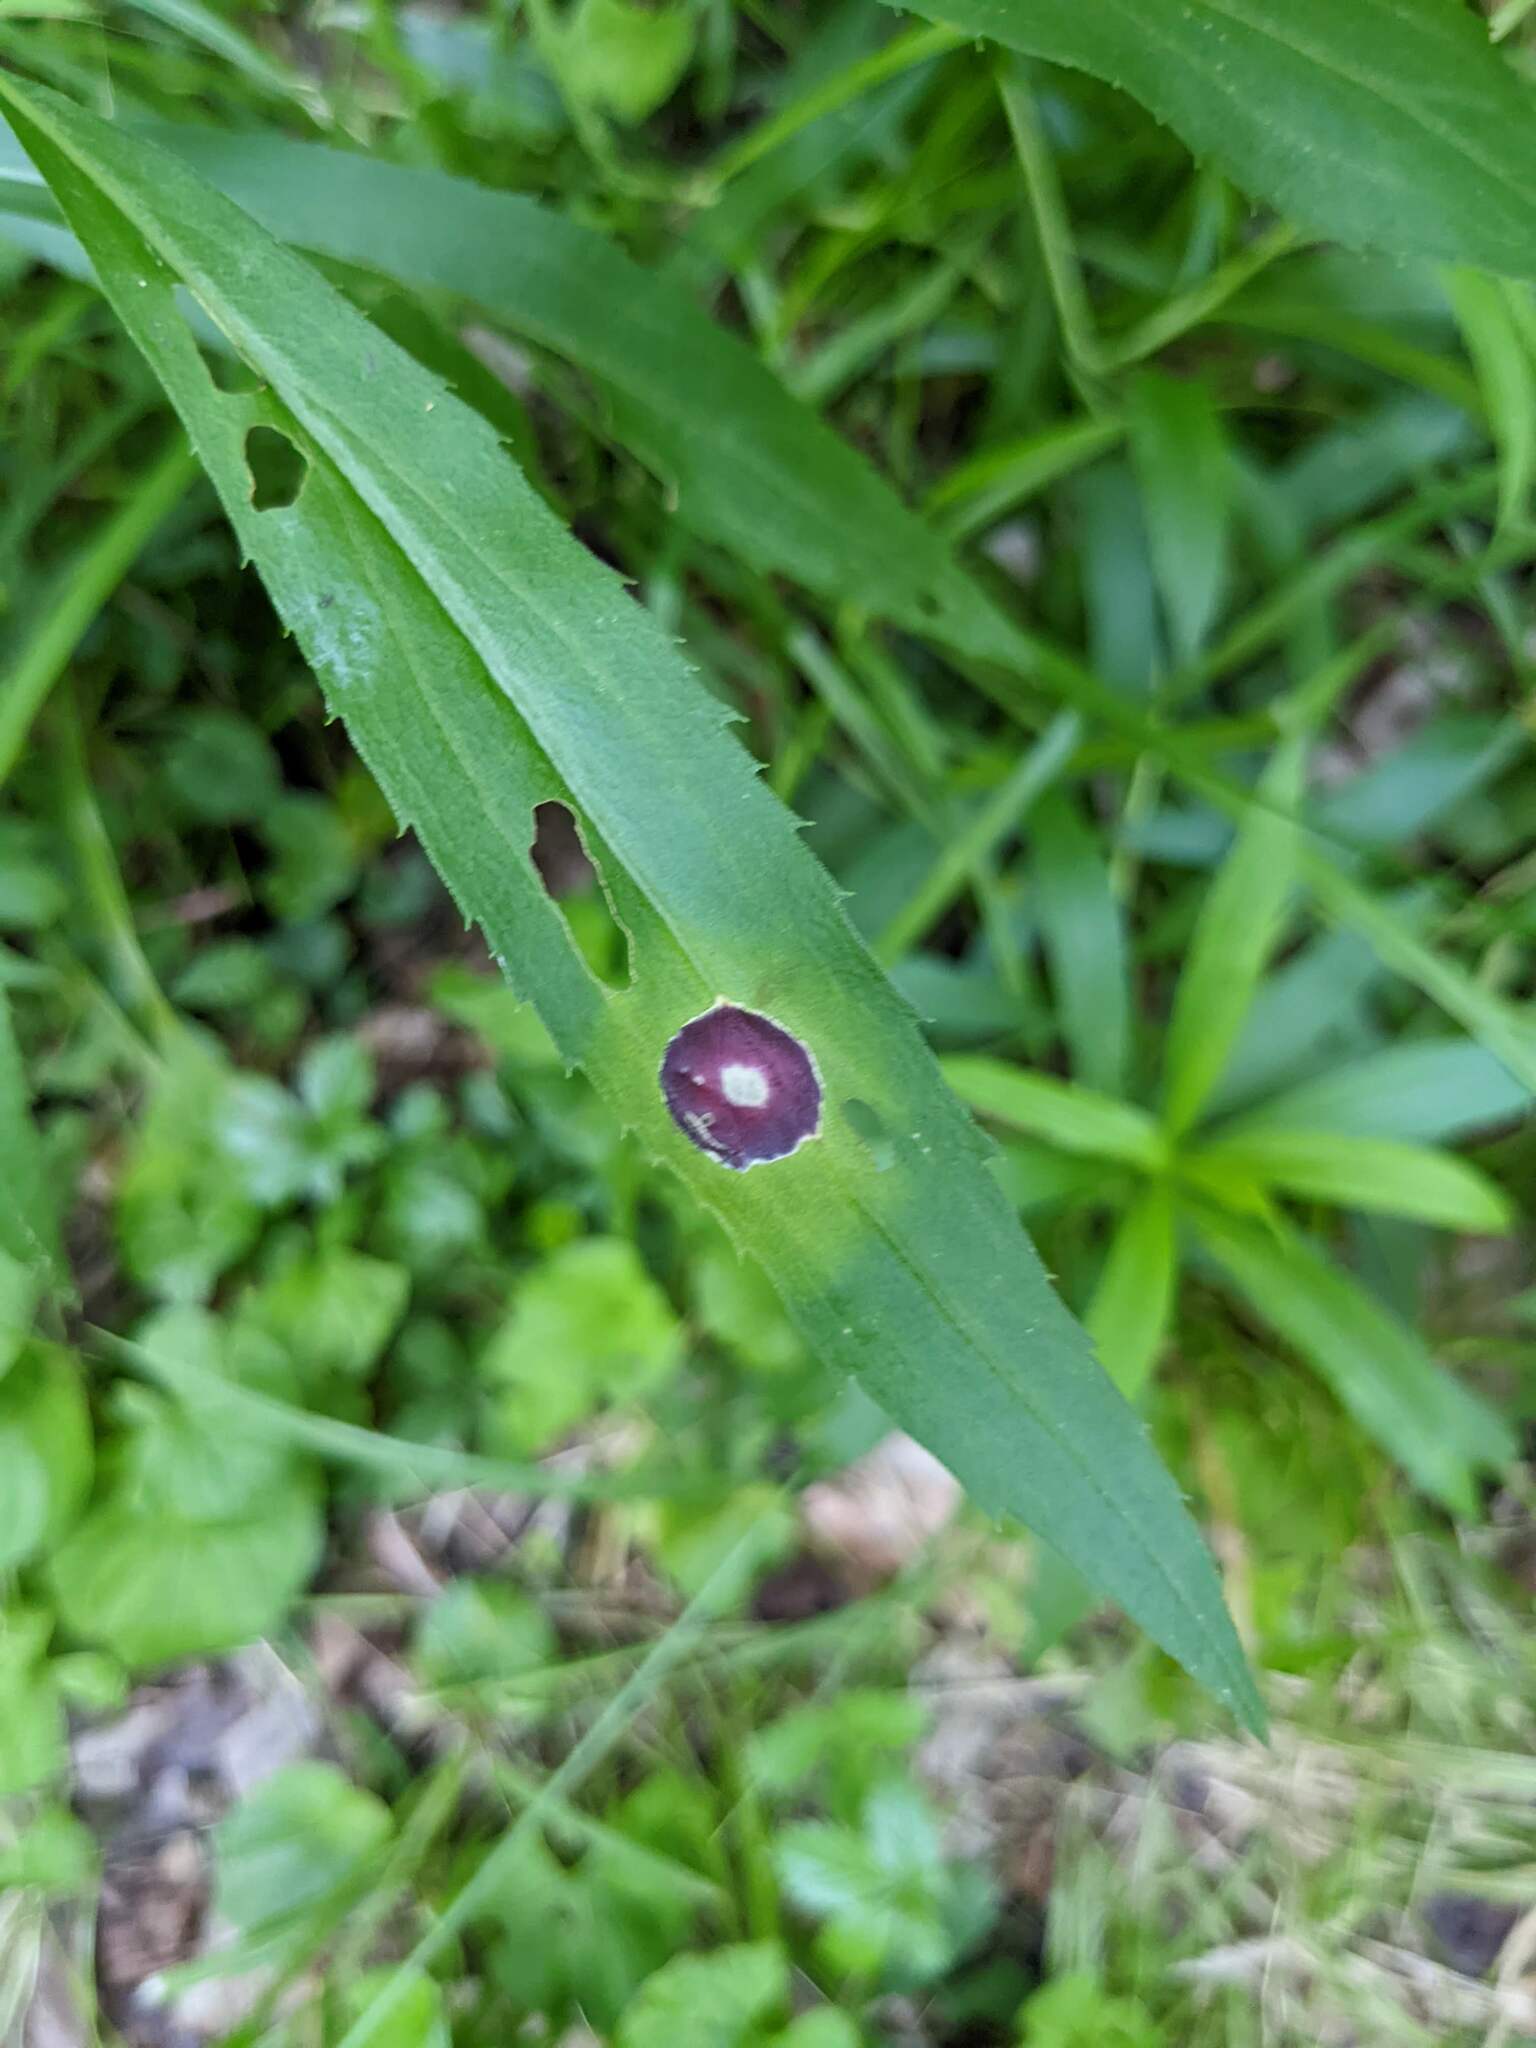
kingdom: Animalia
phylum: Arthropoda
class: Insecta
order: Diptera
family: Cecidomyiidae
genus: Asteromyia
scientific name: Asteromyia carbonifera
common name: Carbonifera goldenrod gall midge
